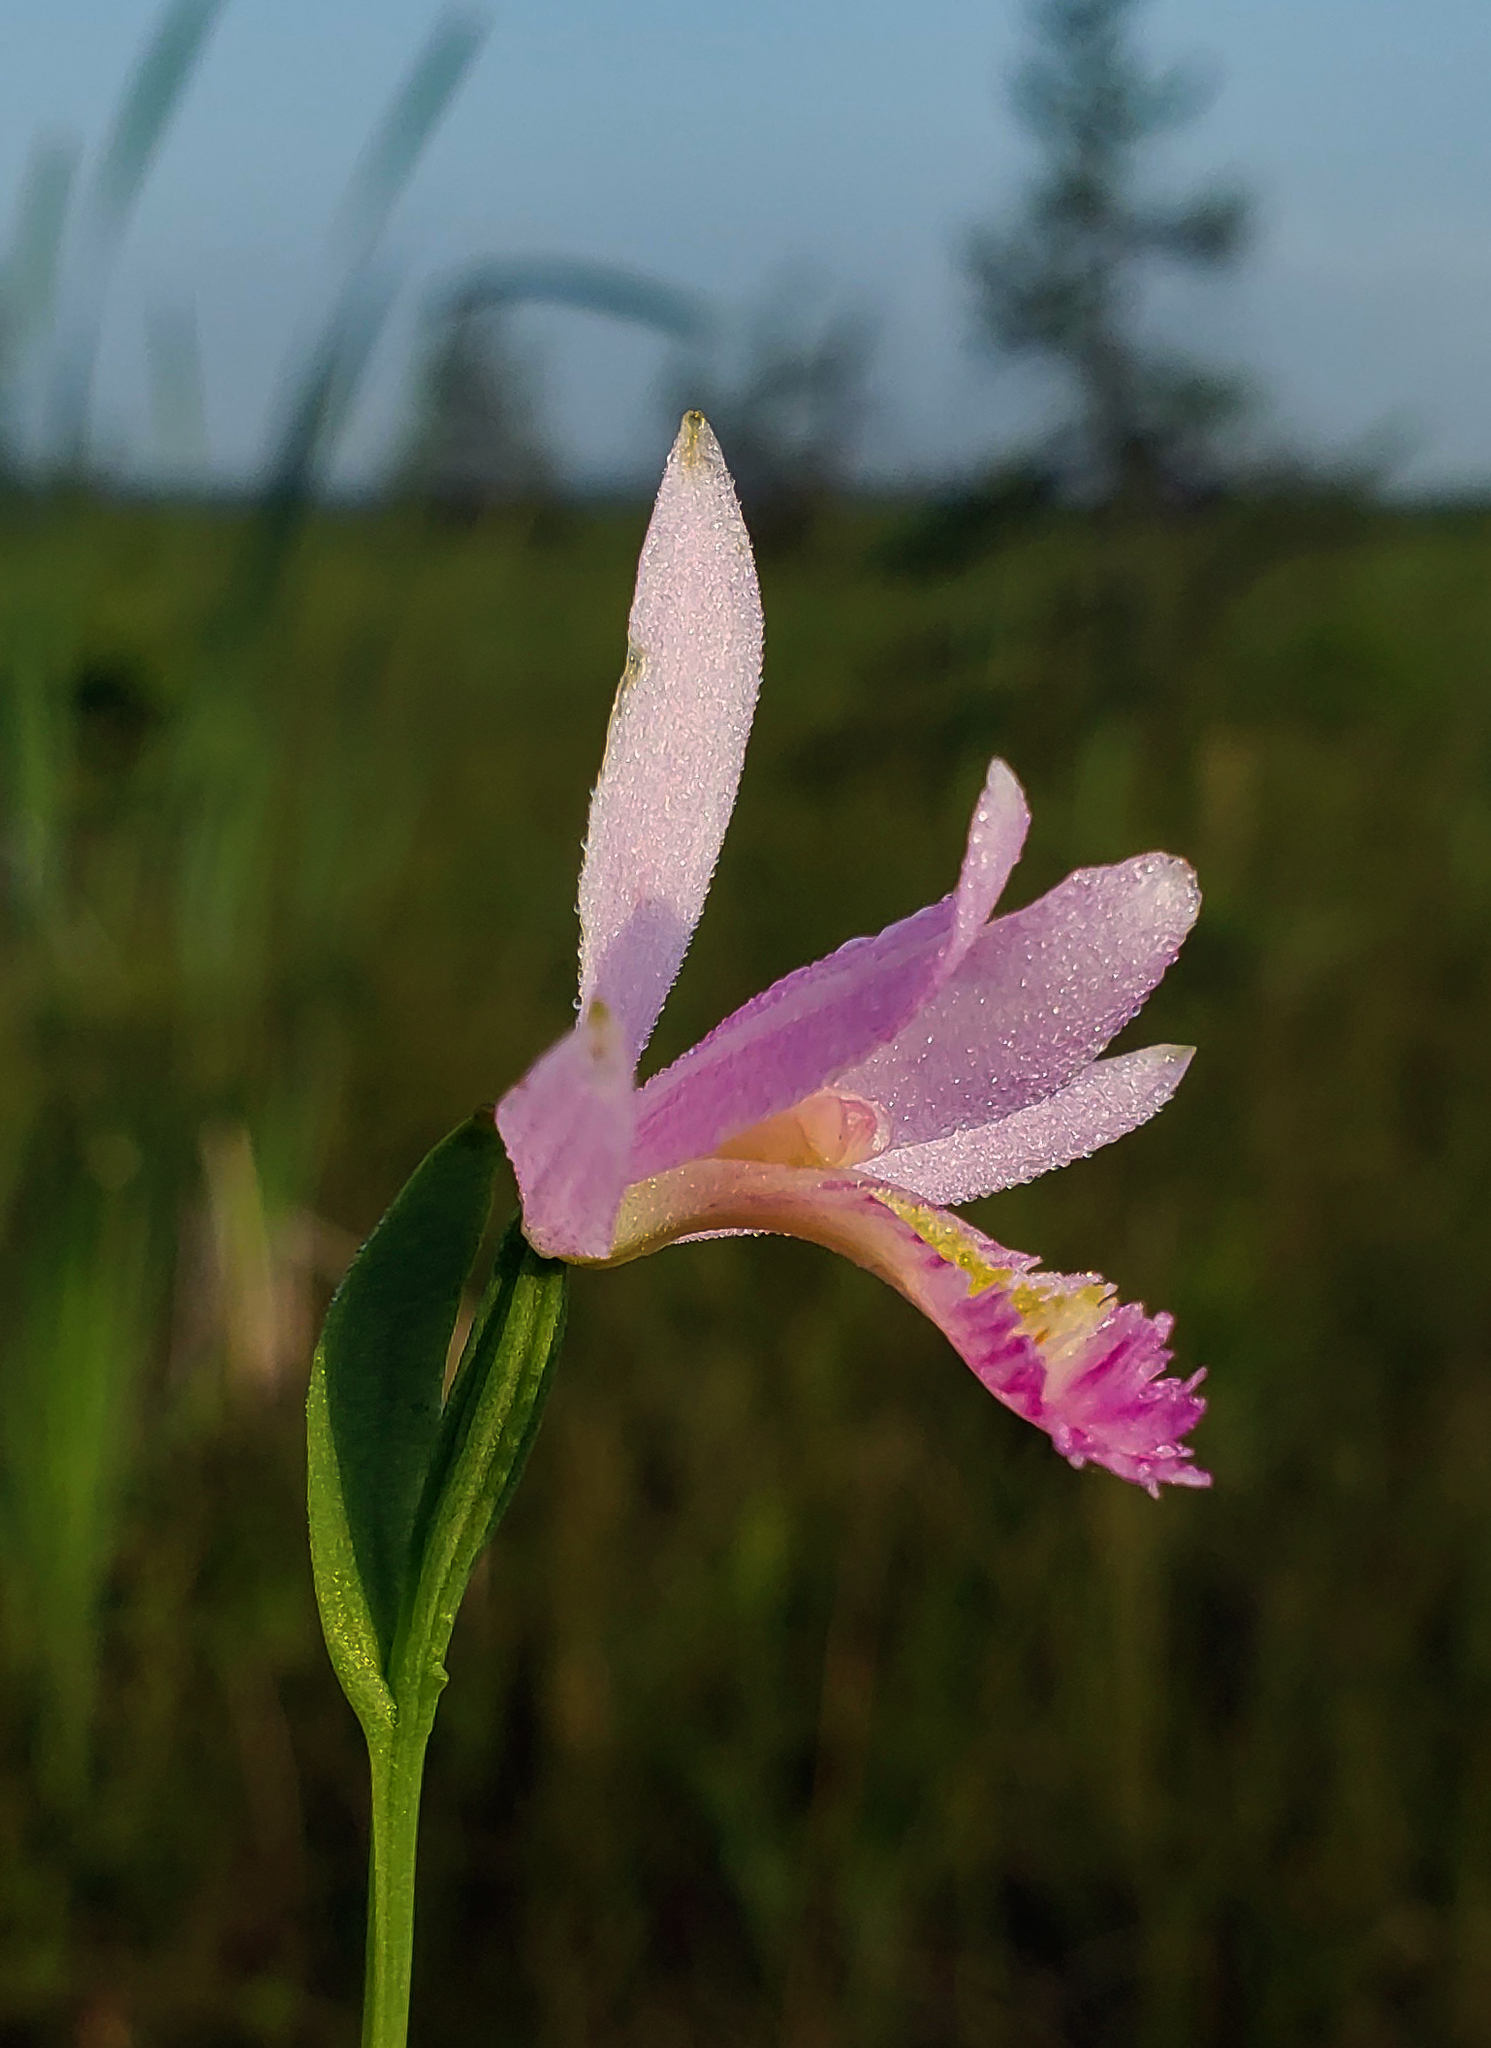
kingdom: Plantae
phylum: Tracheophyta
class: Liliopsida
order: Asparagales
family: Orchidaceae
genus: Pogonia
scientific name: Pogonia ophioglossoides
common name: Rose pogonia
